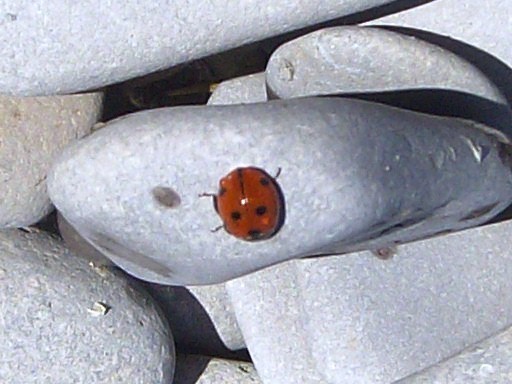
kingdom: Animalia
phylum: Arthropoda
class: Insecta
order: Coleoptera
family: Coccinellidae
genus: Coccinella
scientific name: Coccinella septempunctata
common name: Sevenspotted lady beetle
